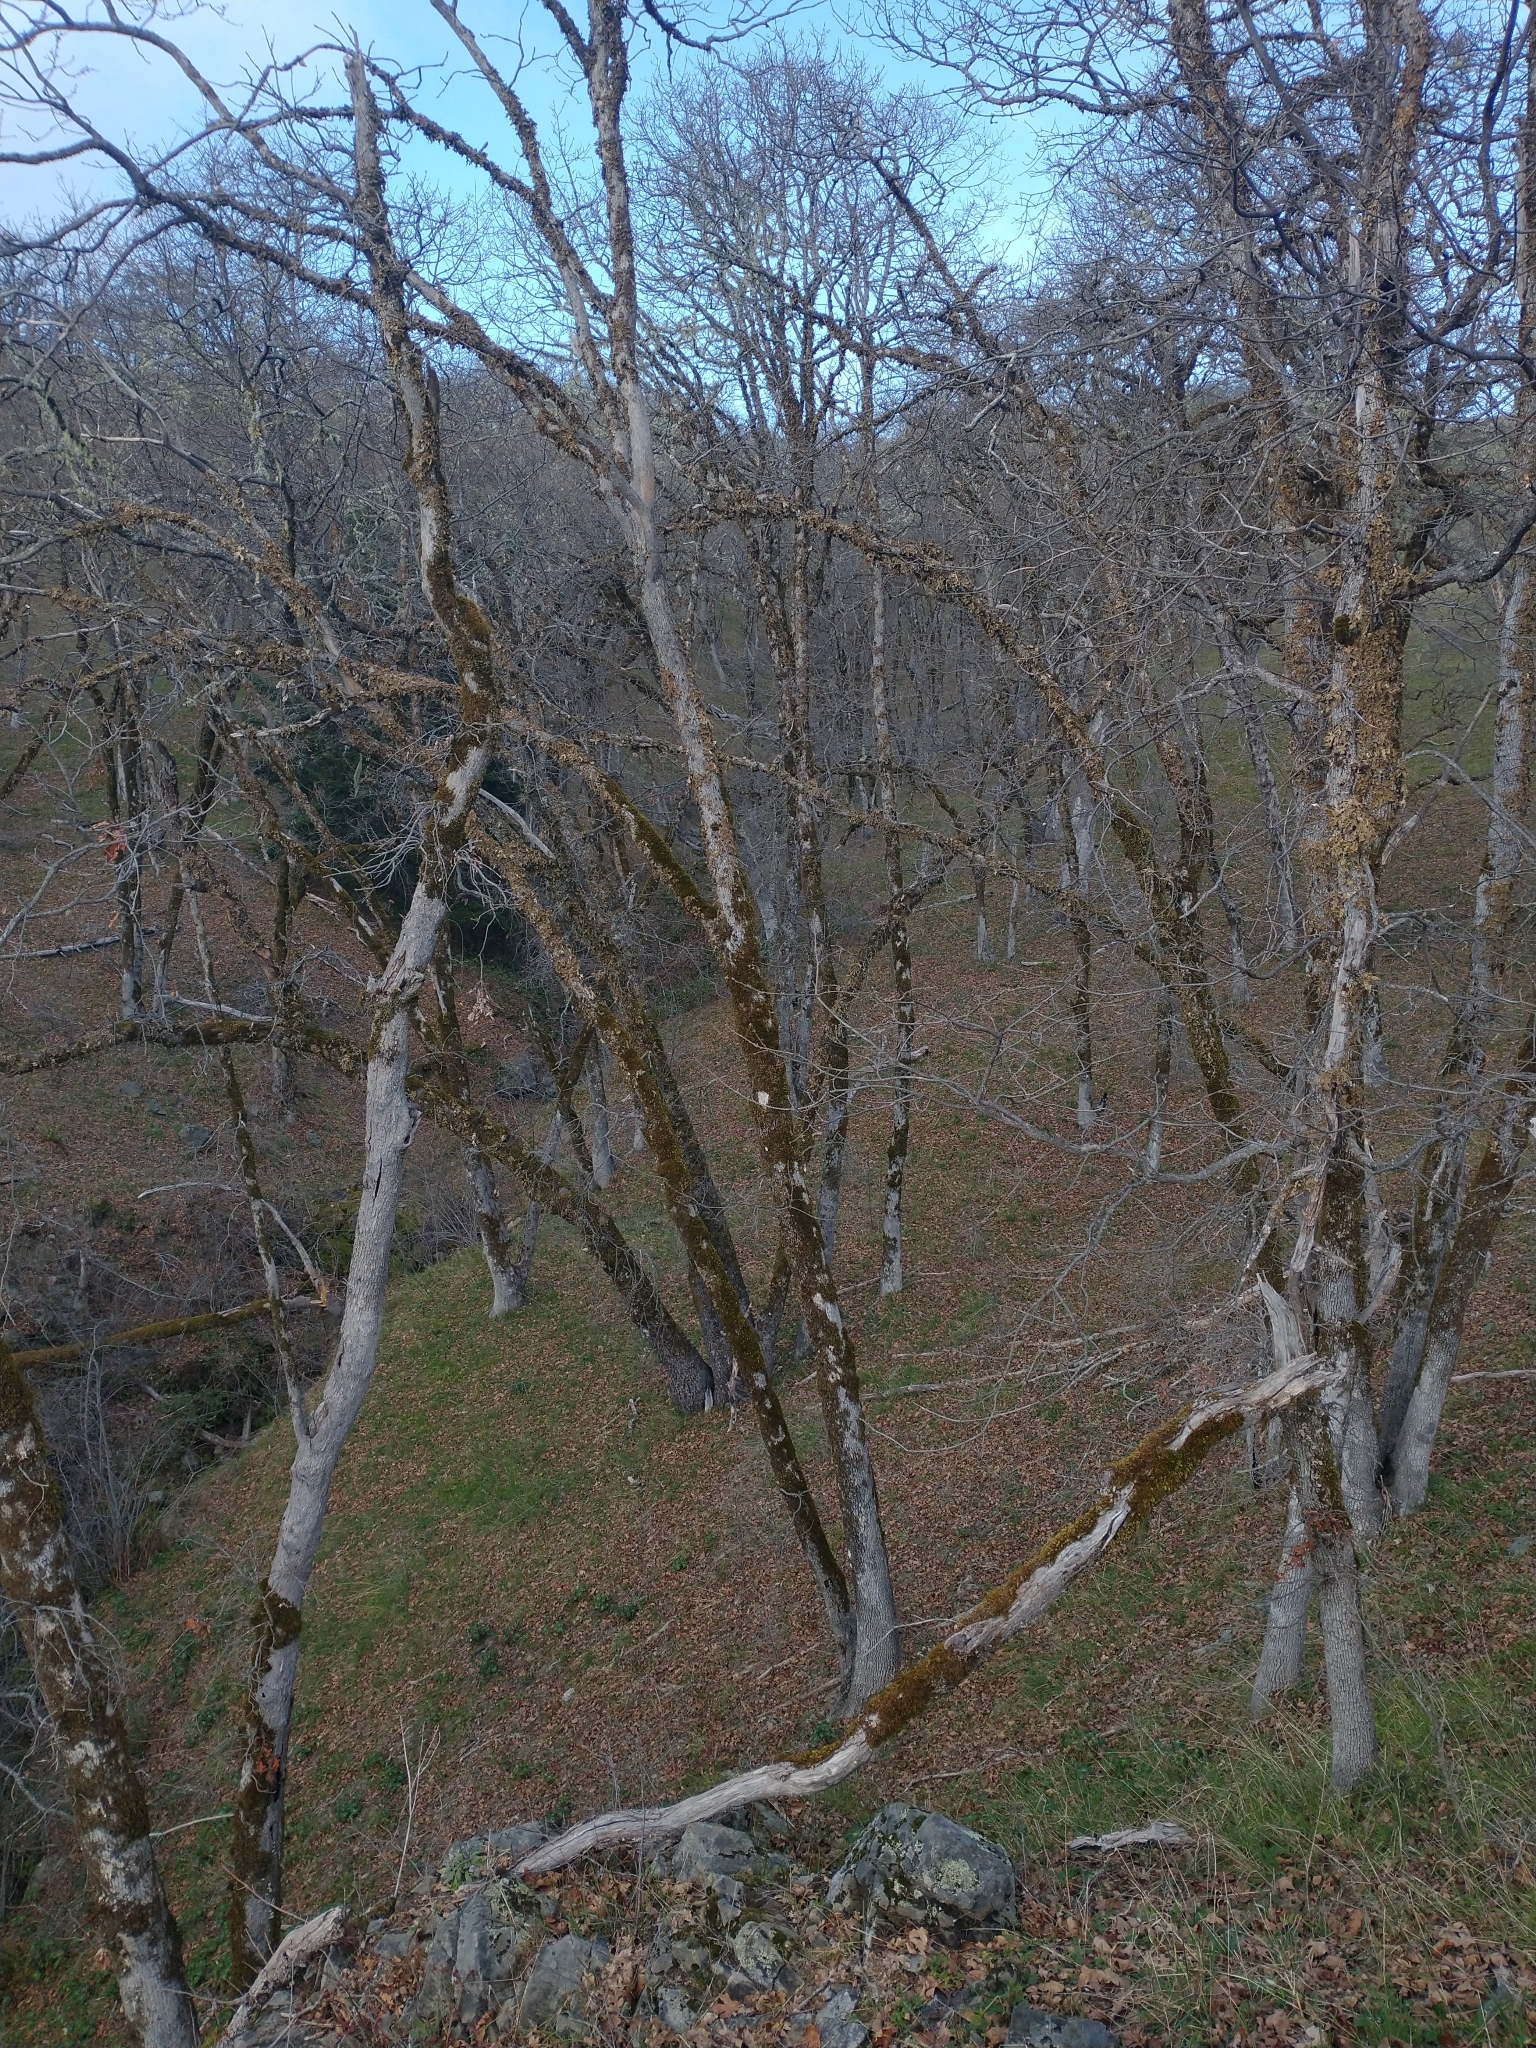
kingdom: Plantae
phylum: Tracheophyta
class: Magnoliopsida
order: Fagales
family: Fagaceae
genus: Quercus
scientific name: Quercus garryana
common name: Garry oak
